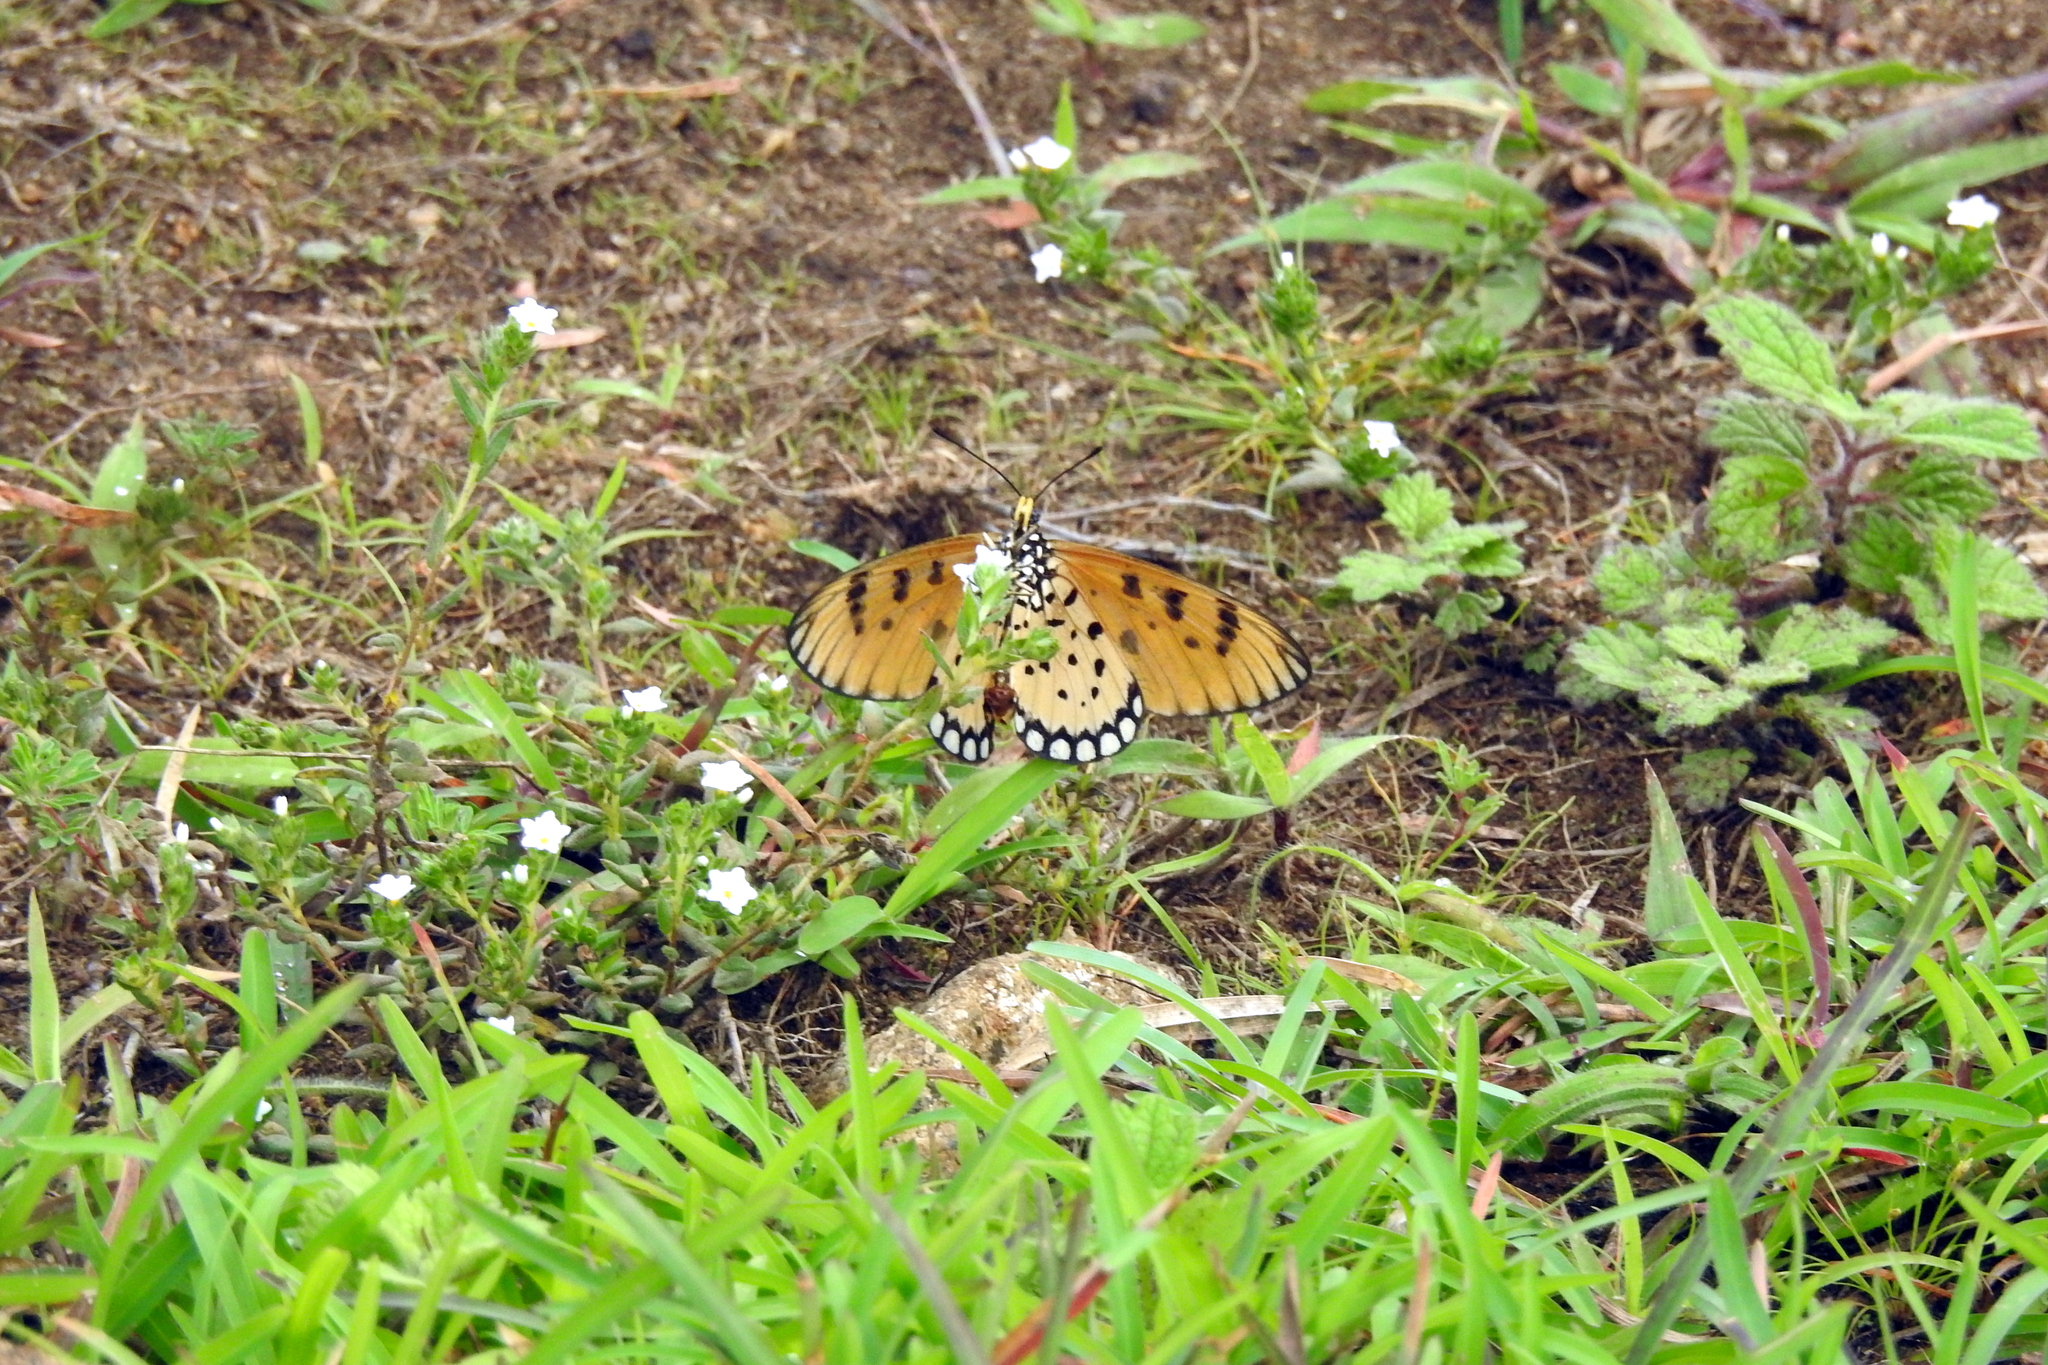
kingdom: Animalia
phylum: Arthropoda
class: Insecta
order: Lepidoptera
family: Nymphalidae
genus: Acraea
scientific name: Acraea terpsicore
